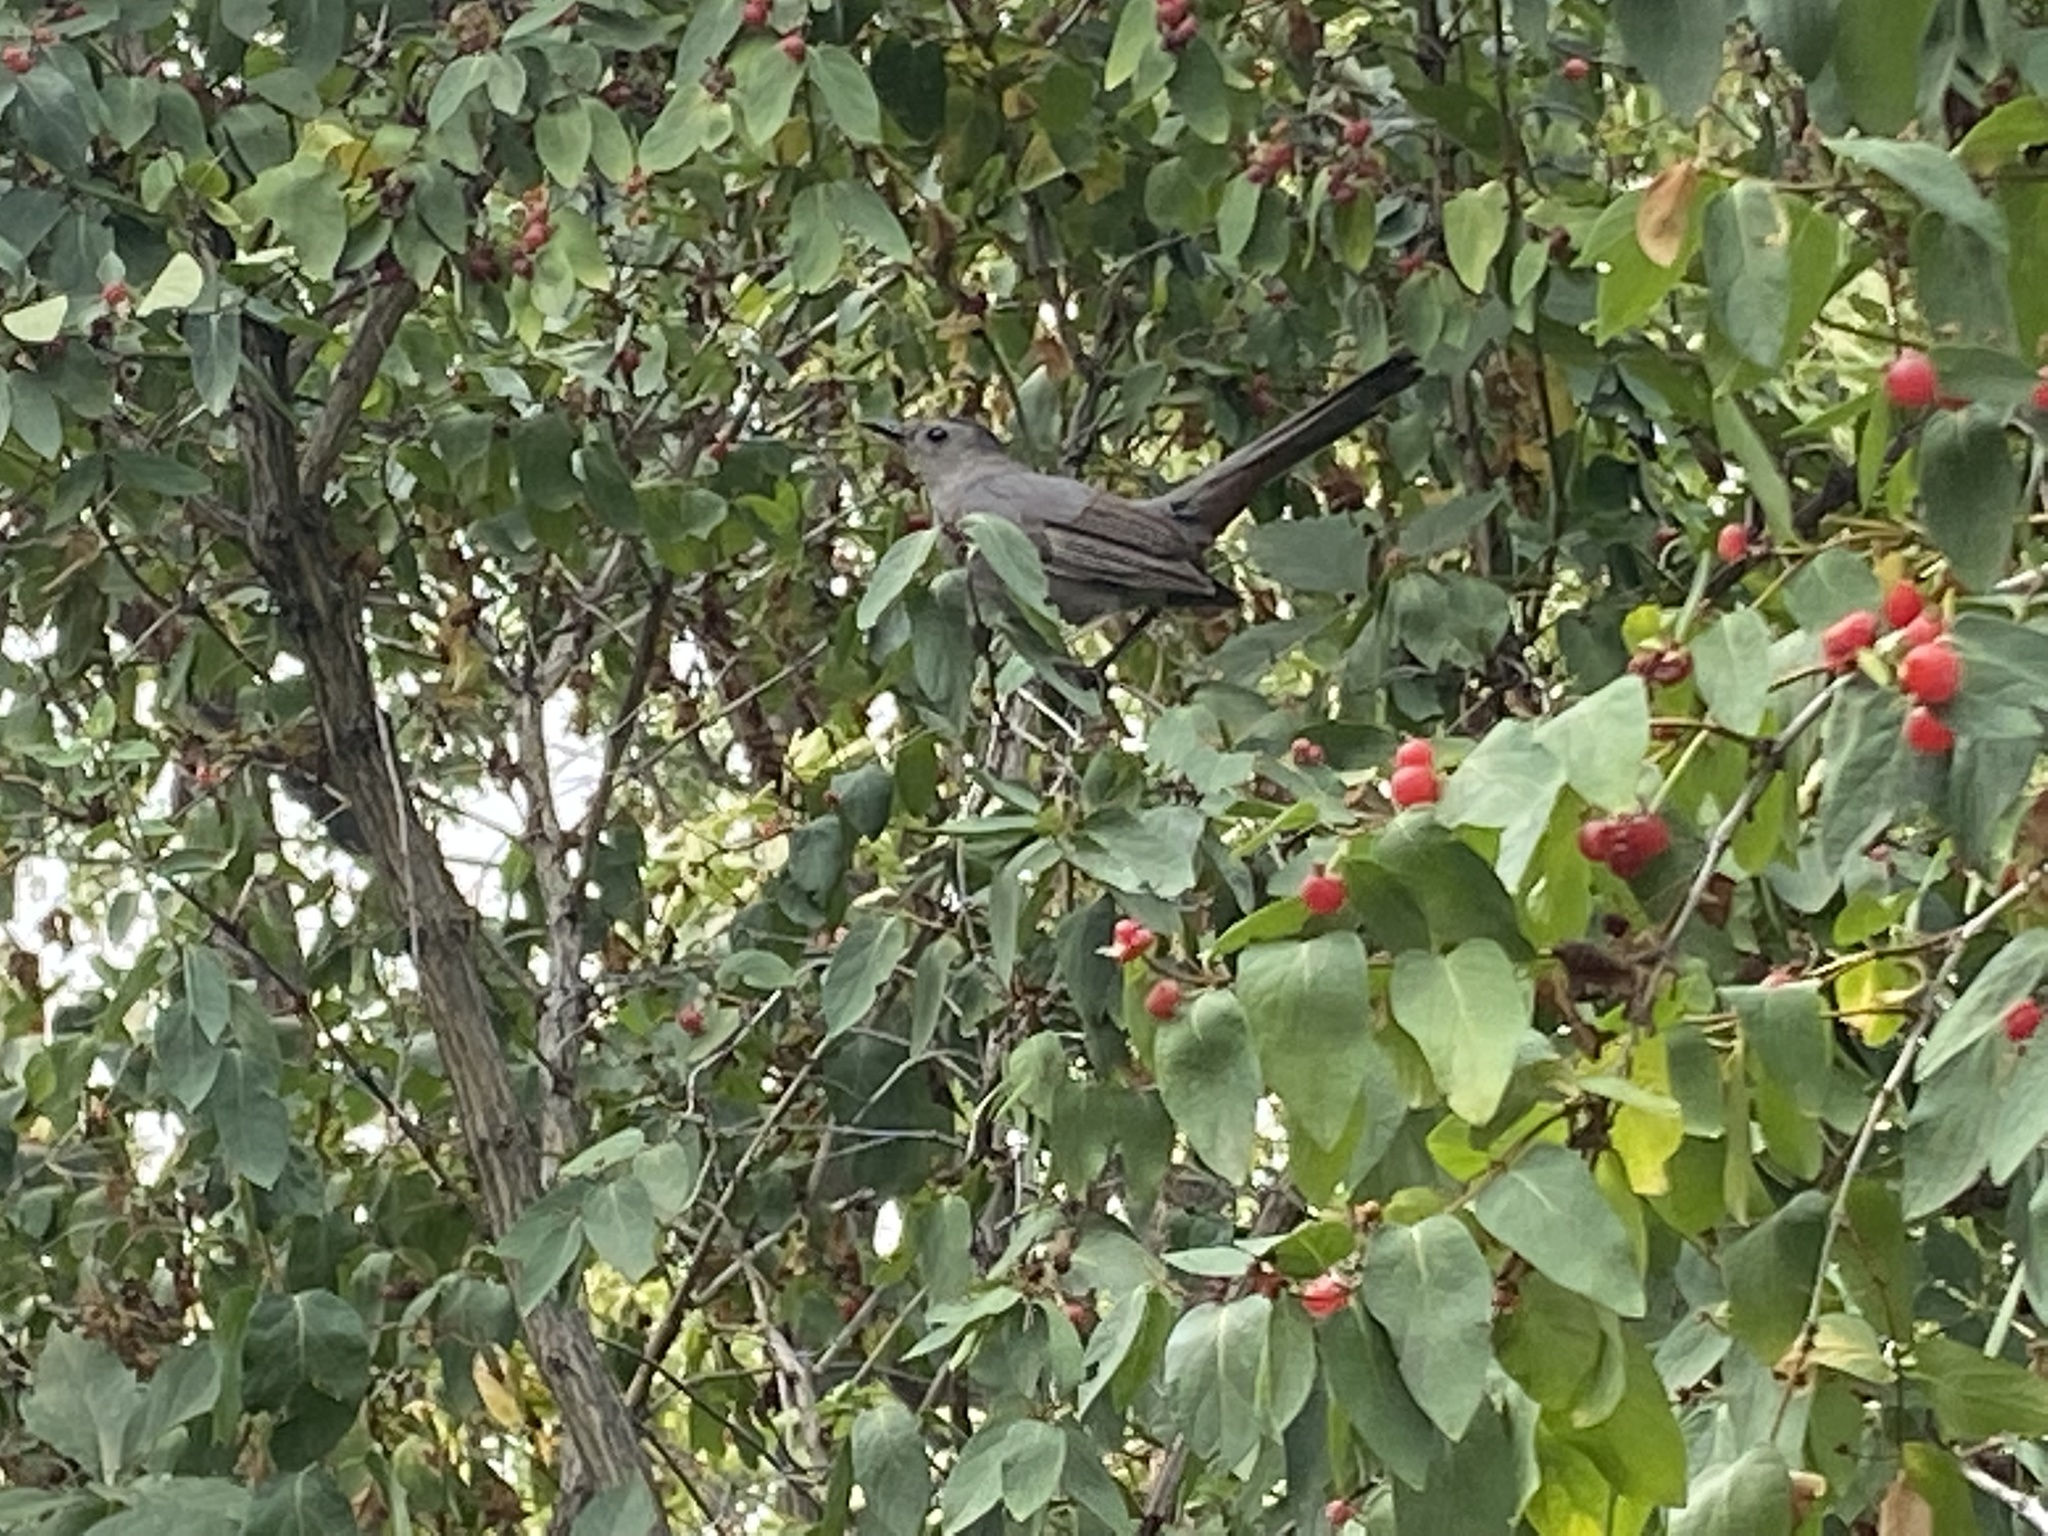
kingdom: Animalia
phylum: Chordata
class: Aves
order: Passeriformes
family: Mimidae
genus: Dumetella
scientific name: Dumetella carolinensis
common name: Gray catbird
